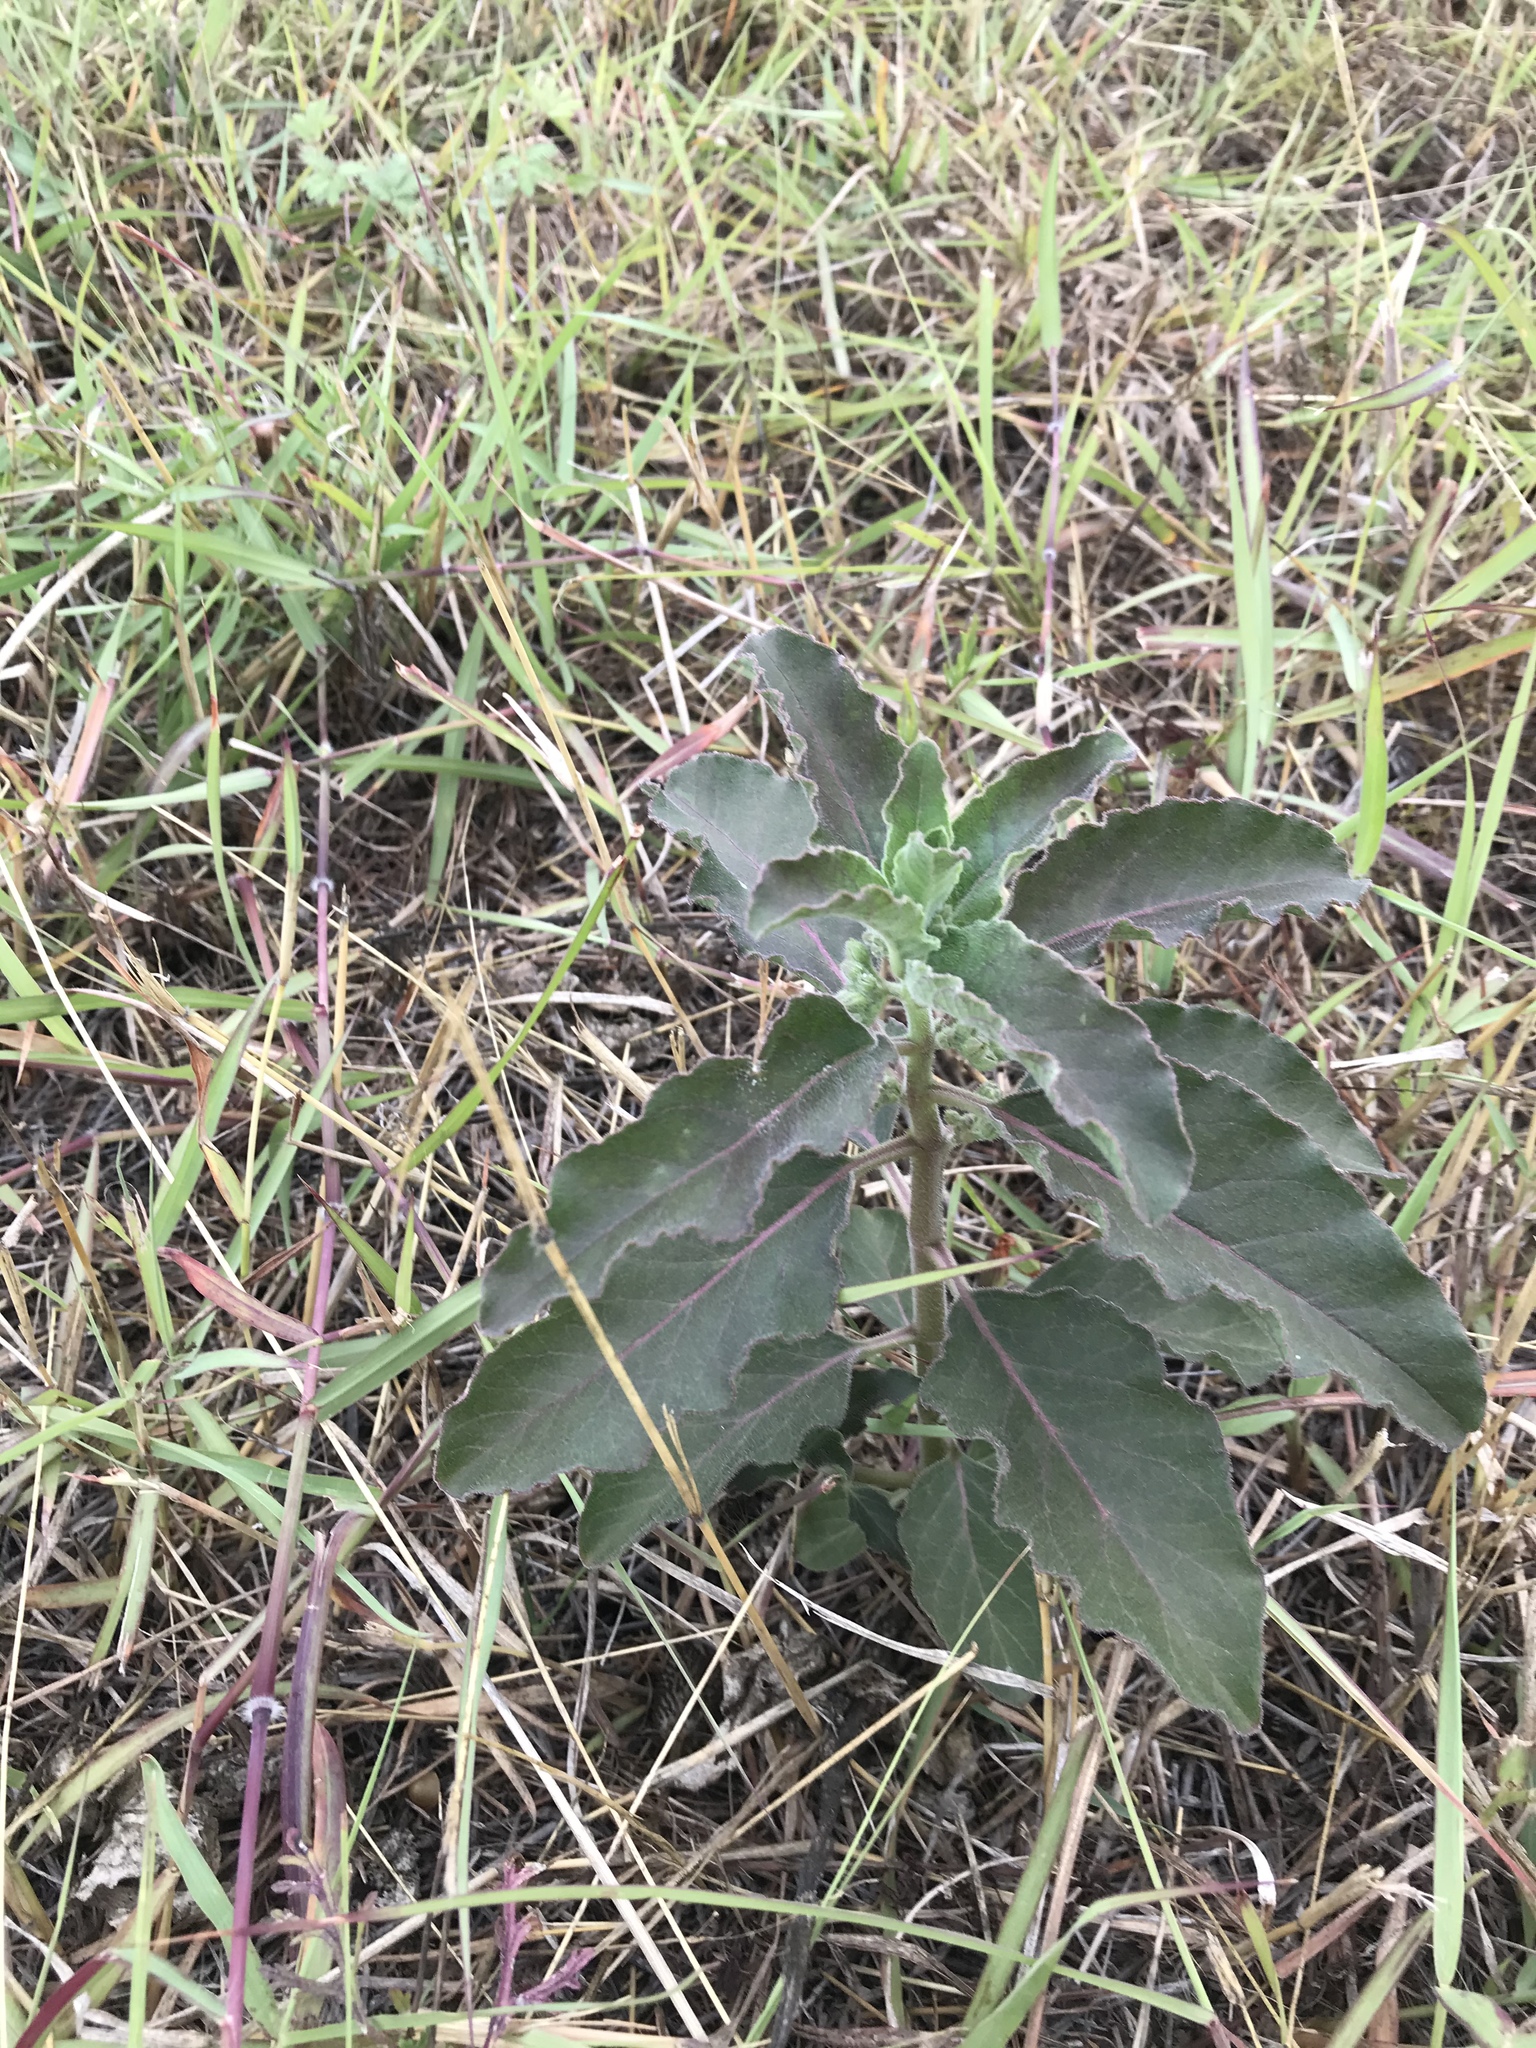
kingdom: Plantae
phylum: Tracheophyta
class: Magnoliopsida
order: Gentianales
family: Apocynaceae
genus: Asclepias
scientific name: Asclepias oenotheroides
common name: Zizotes milkweed
